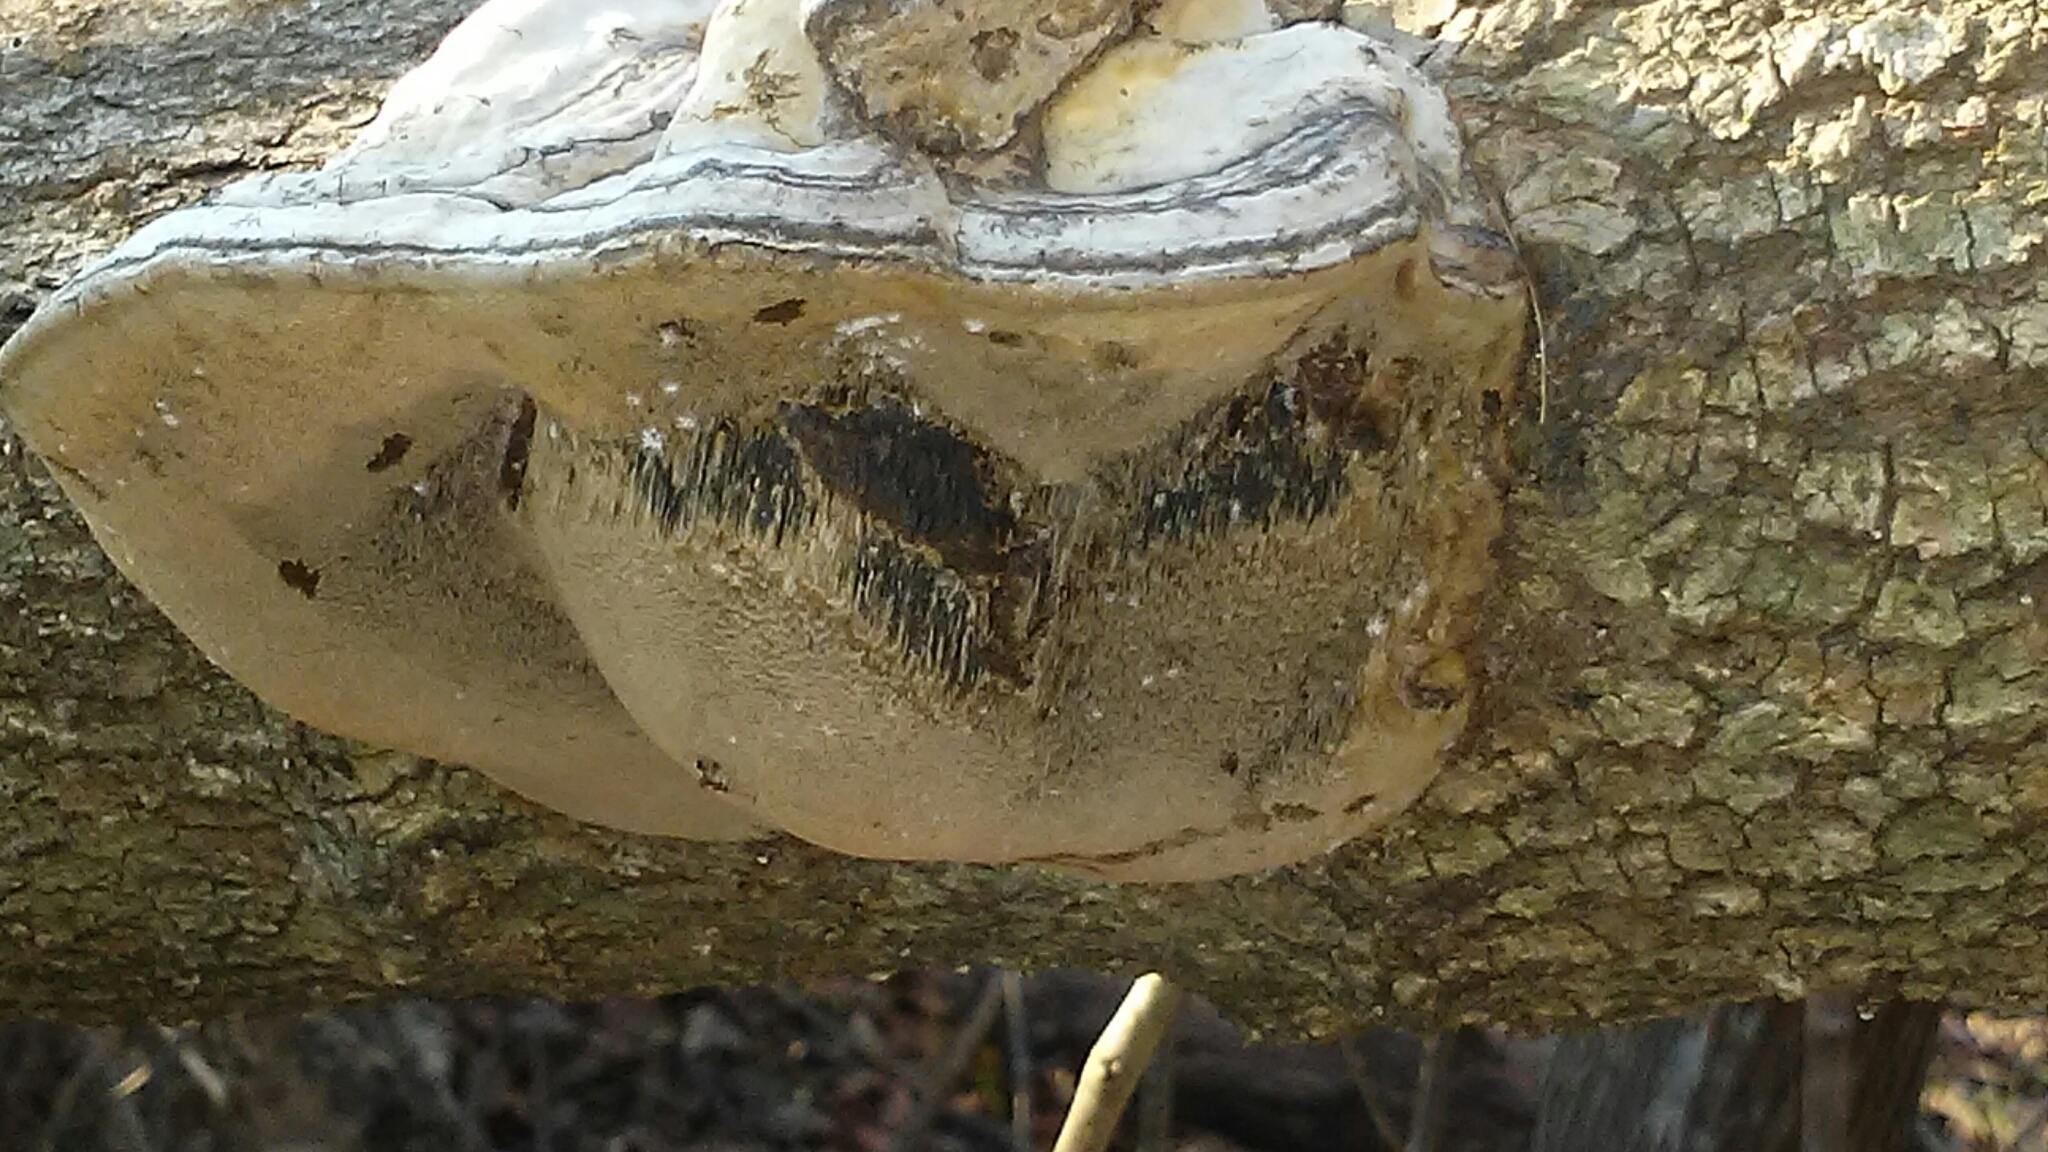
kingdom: Fungi
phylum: Basidiomycota
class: Agaricomycetes
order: Polyporales
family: Polyporaceae
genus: Fomes
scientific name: Fomes fasciatus
